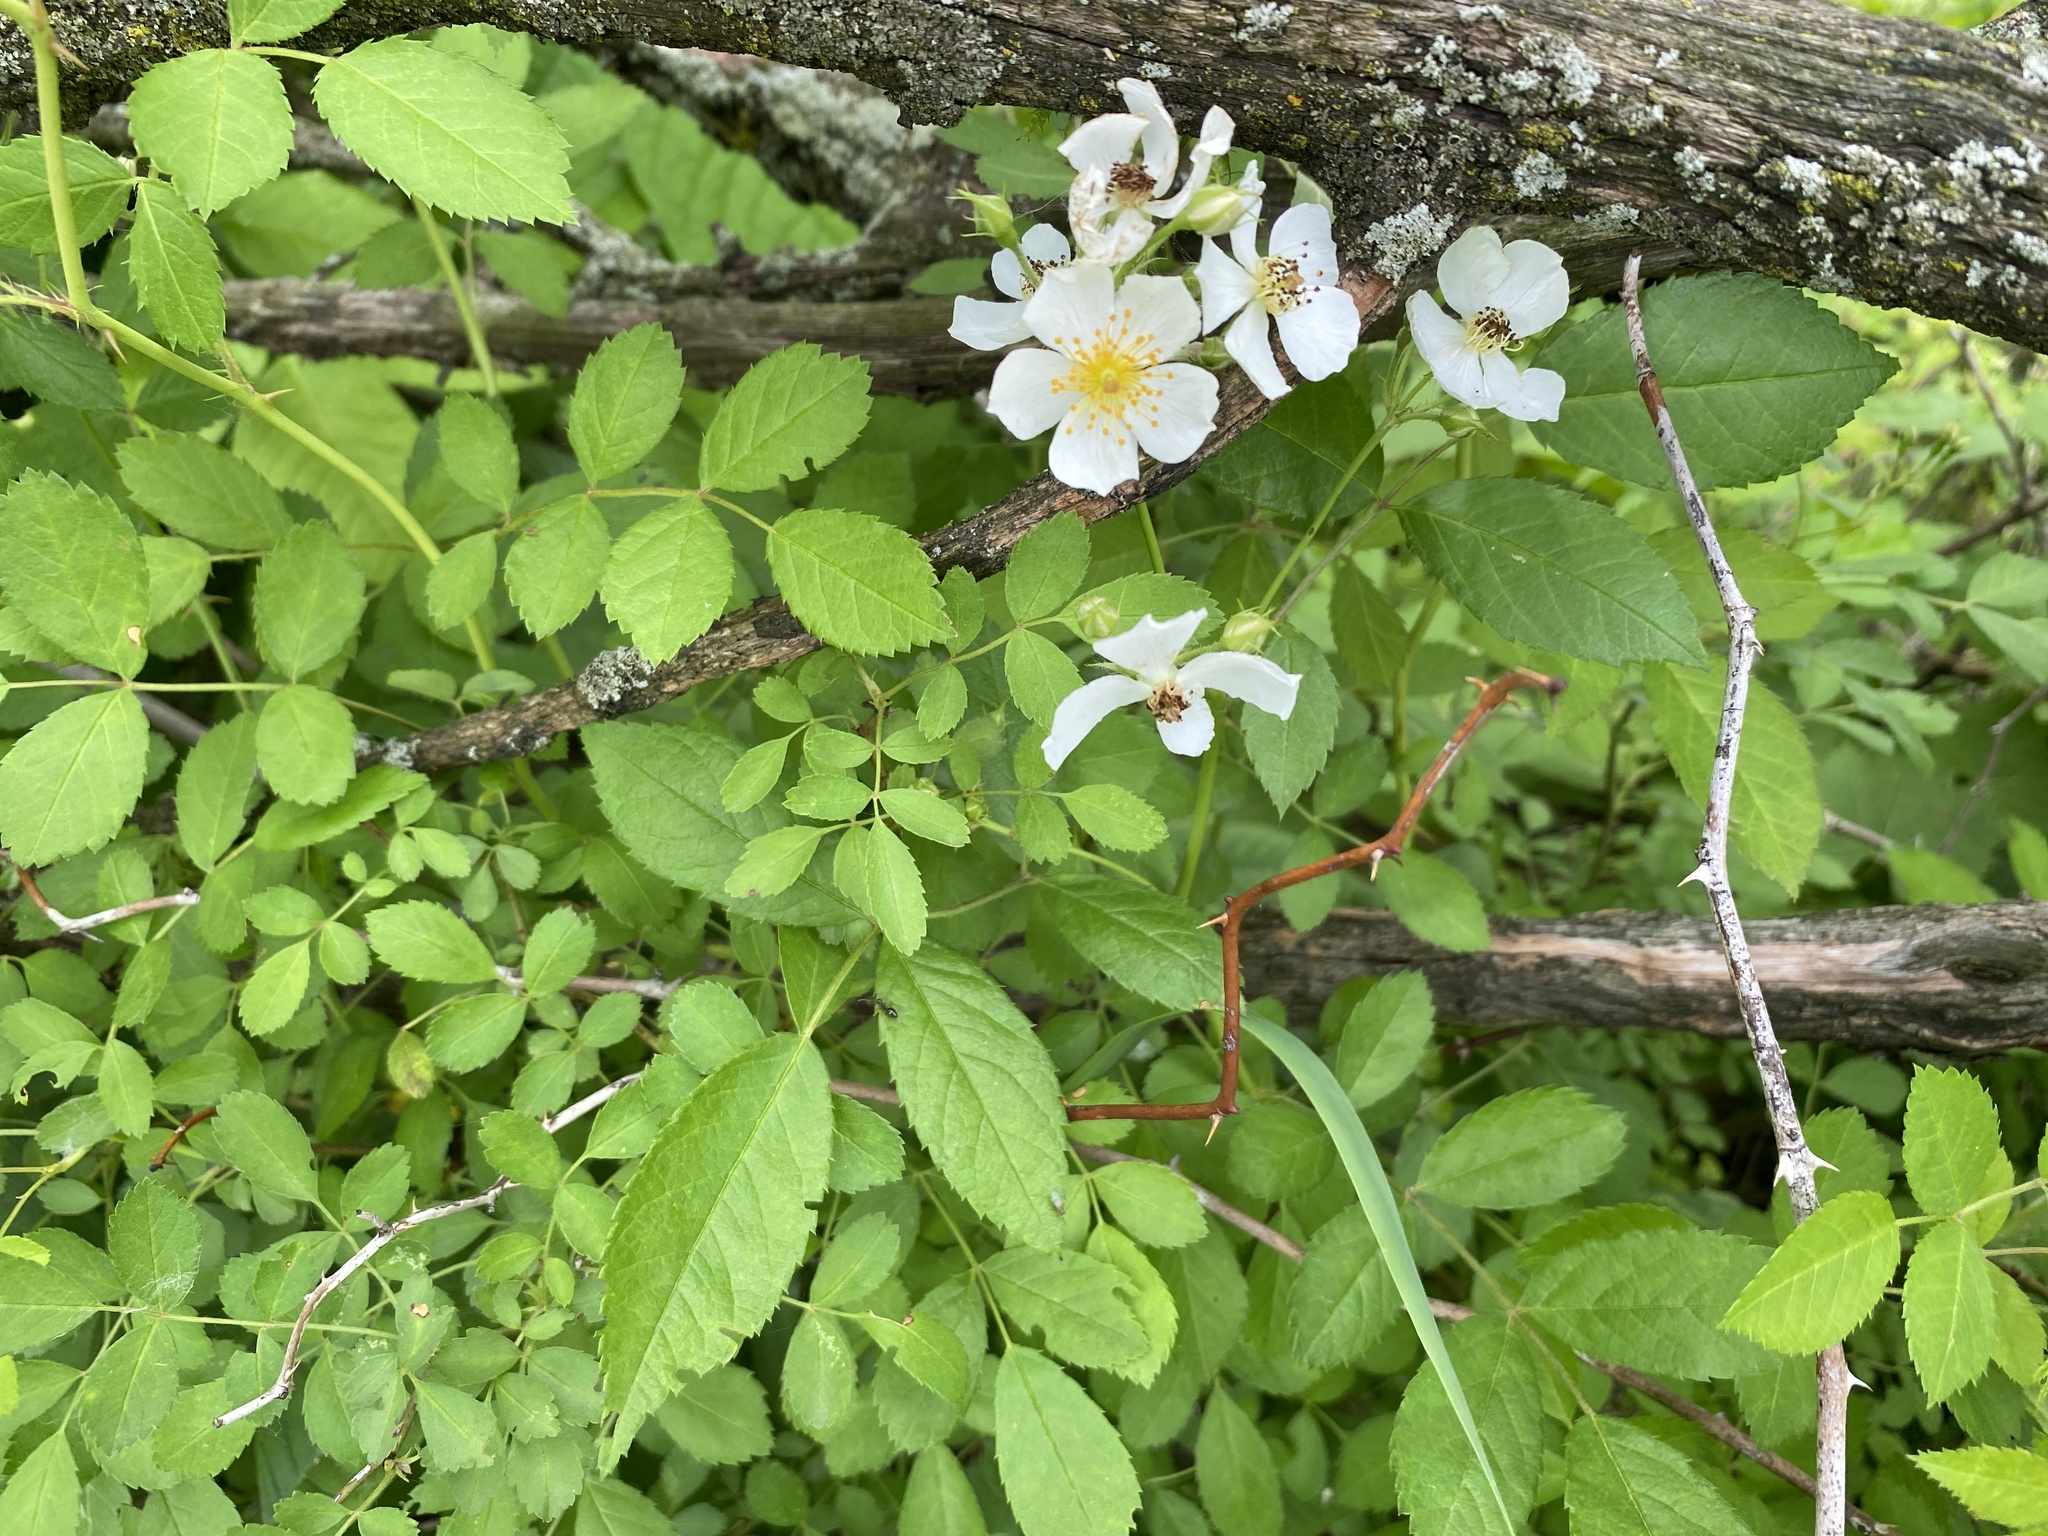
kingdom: Plantae
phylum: Tracheophyta
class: Magnoliopsida
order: Rosales
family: Rosaceae
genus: Rosa
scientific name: Rosa multiflora
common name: Multiflora rose
